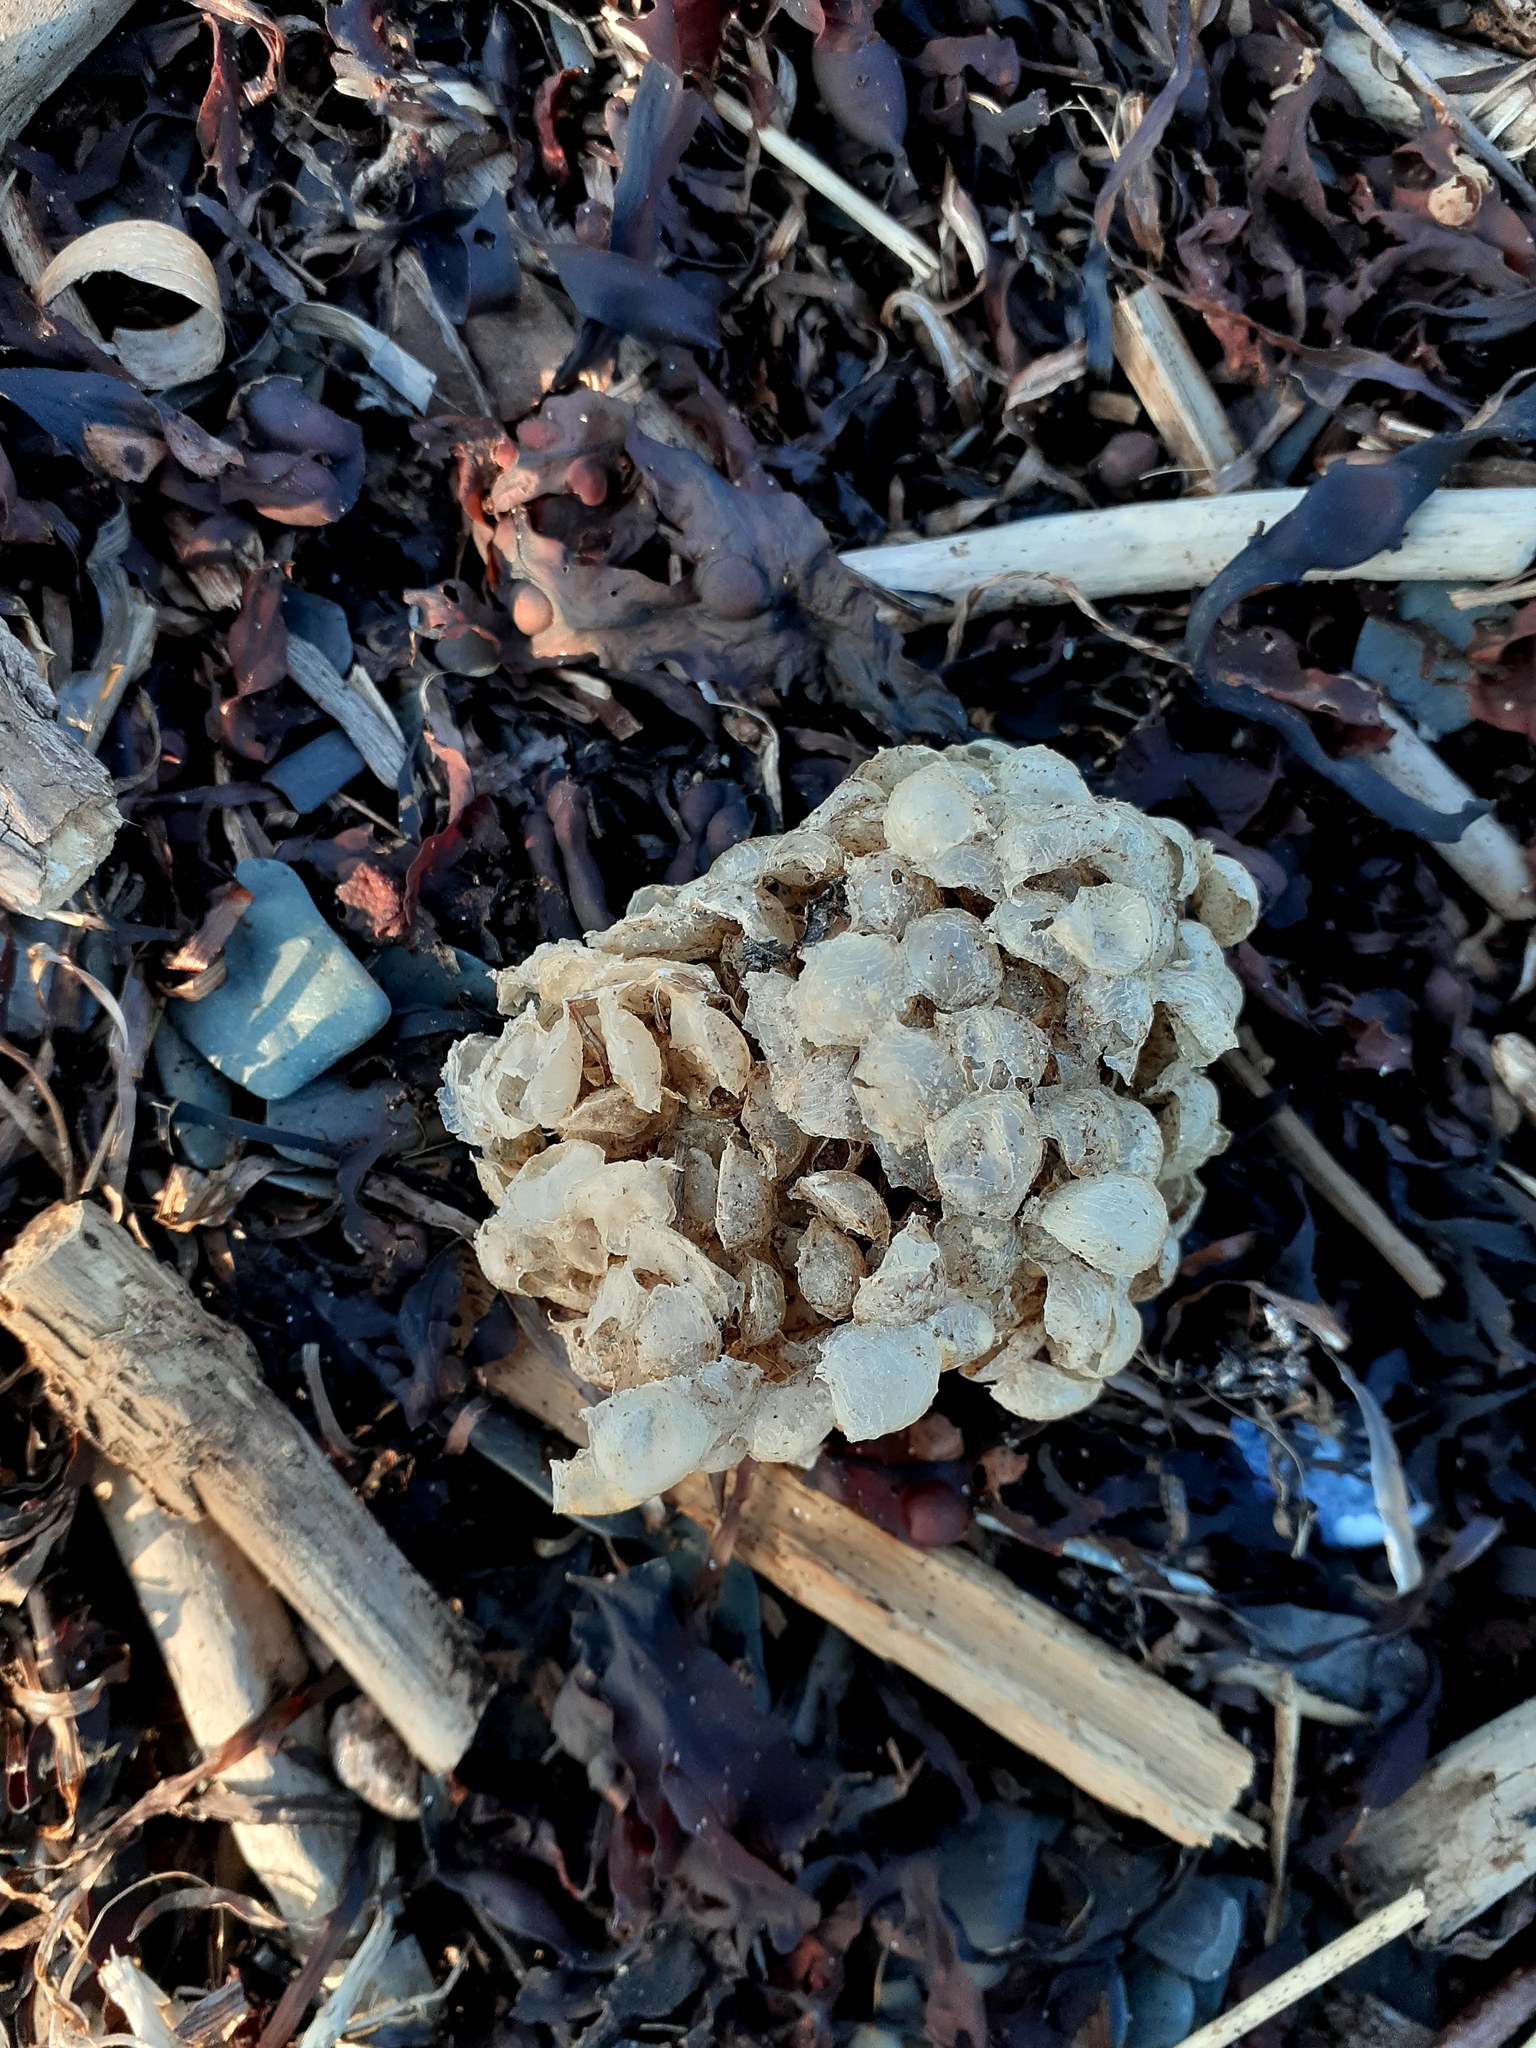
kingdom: Animalia
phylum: Mollusca
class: Gastropoda
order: Neogastropoda
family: Buccinidae
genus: Buccinum
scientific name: Buccinum undatum
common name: Common whelk
